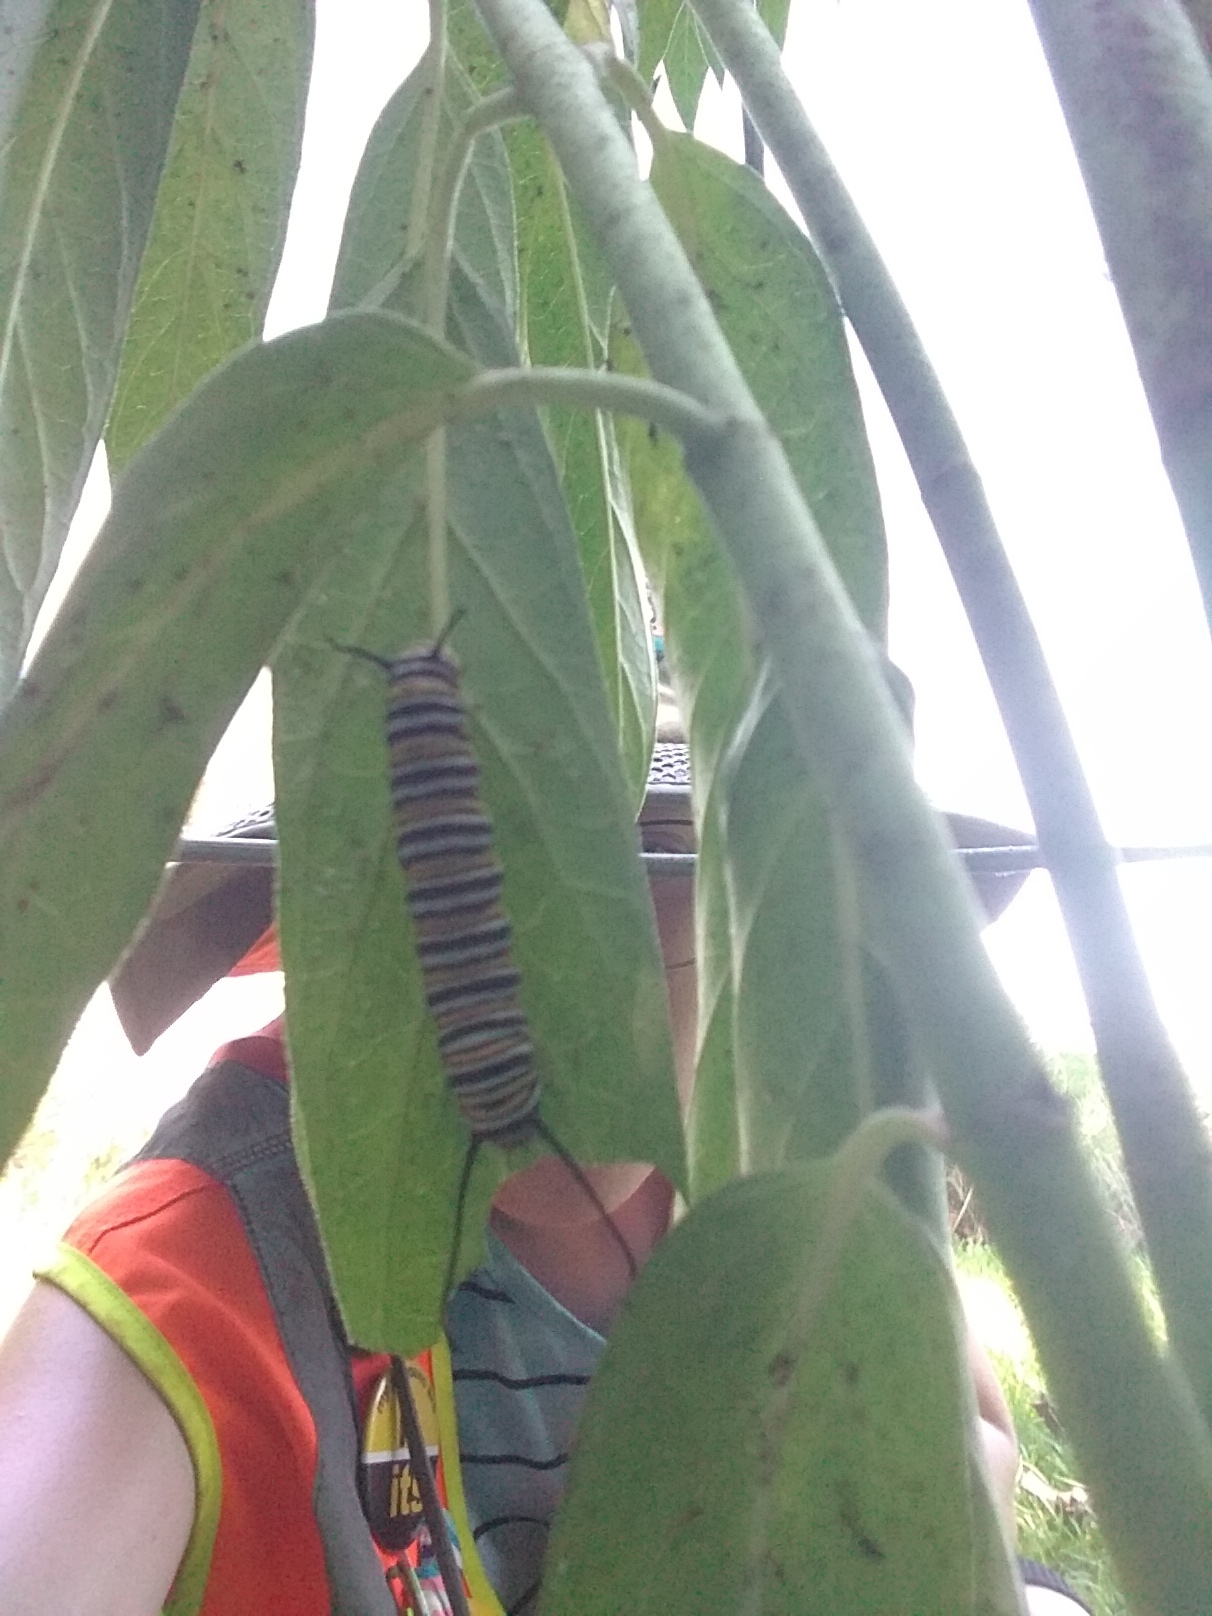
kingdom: Animalia
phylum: Arthropoda
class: Insecta
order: Lepidoptera
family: Nymphalidae
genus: Danaus
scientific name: Danaus plexippus
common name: Monarch
